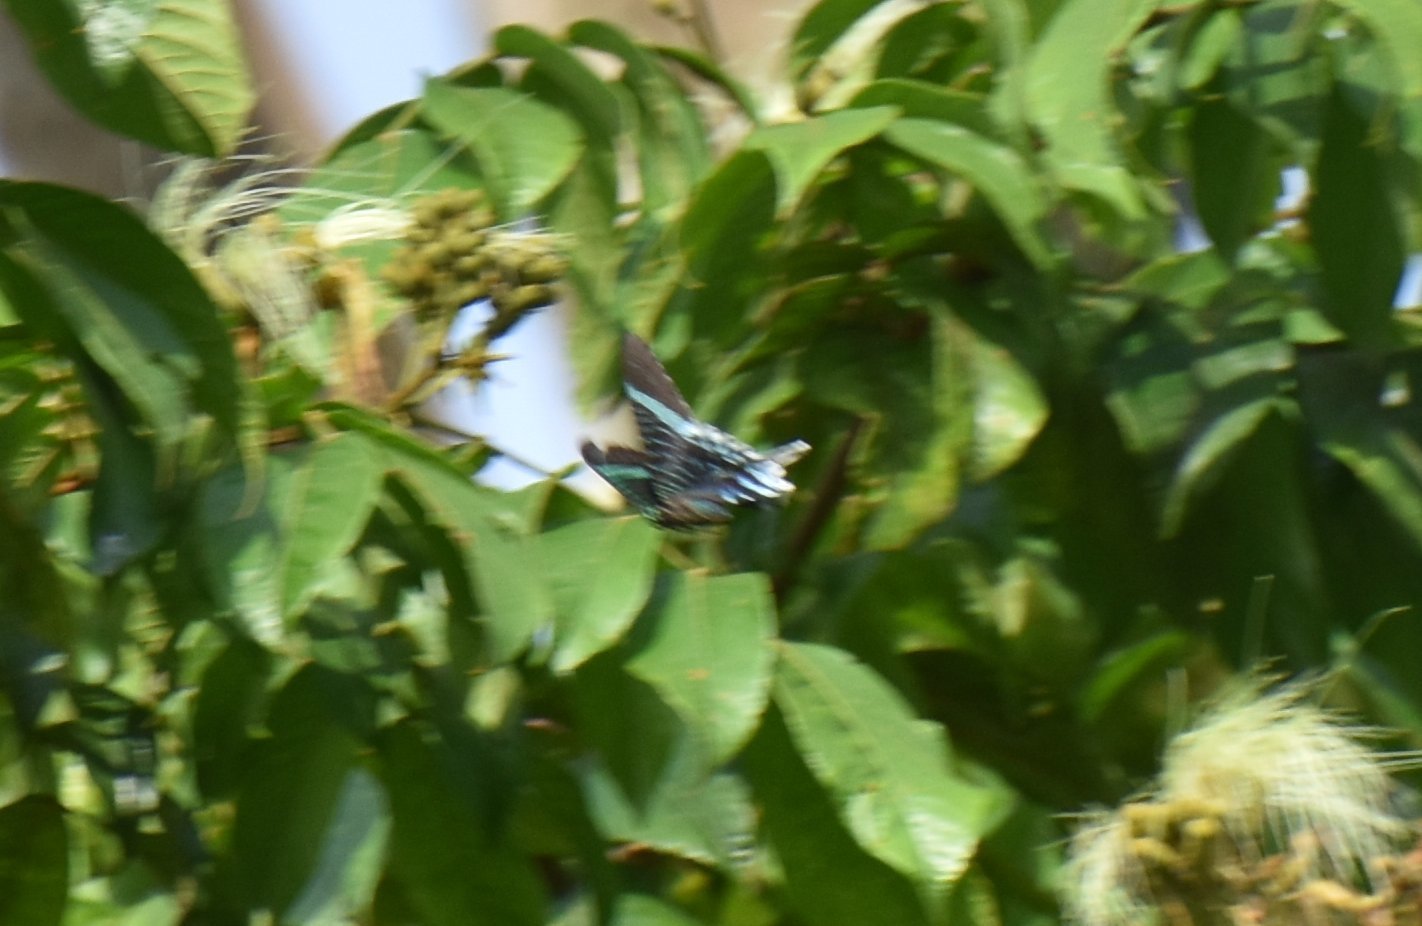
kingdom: Animalia
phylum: Arthropoda
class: Insecta
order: Lepidoptera
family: Uraniidae
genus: Urania
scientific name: Urania leilus
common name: Peacock moth
